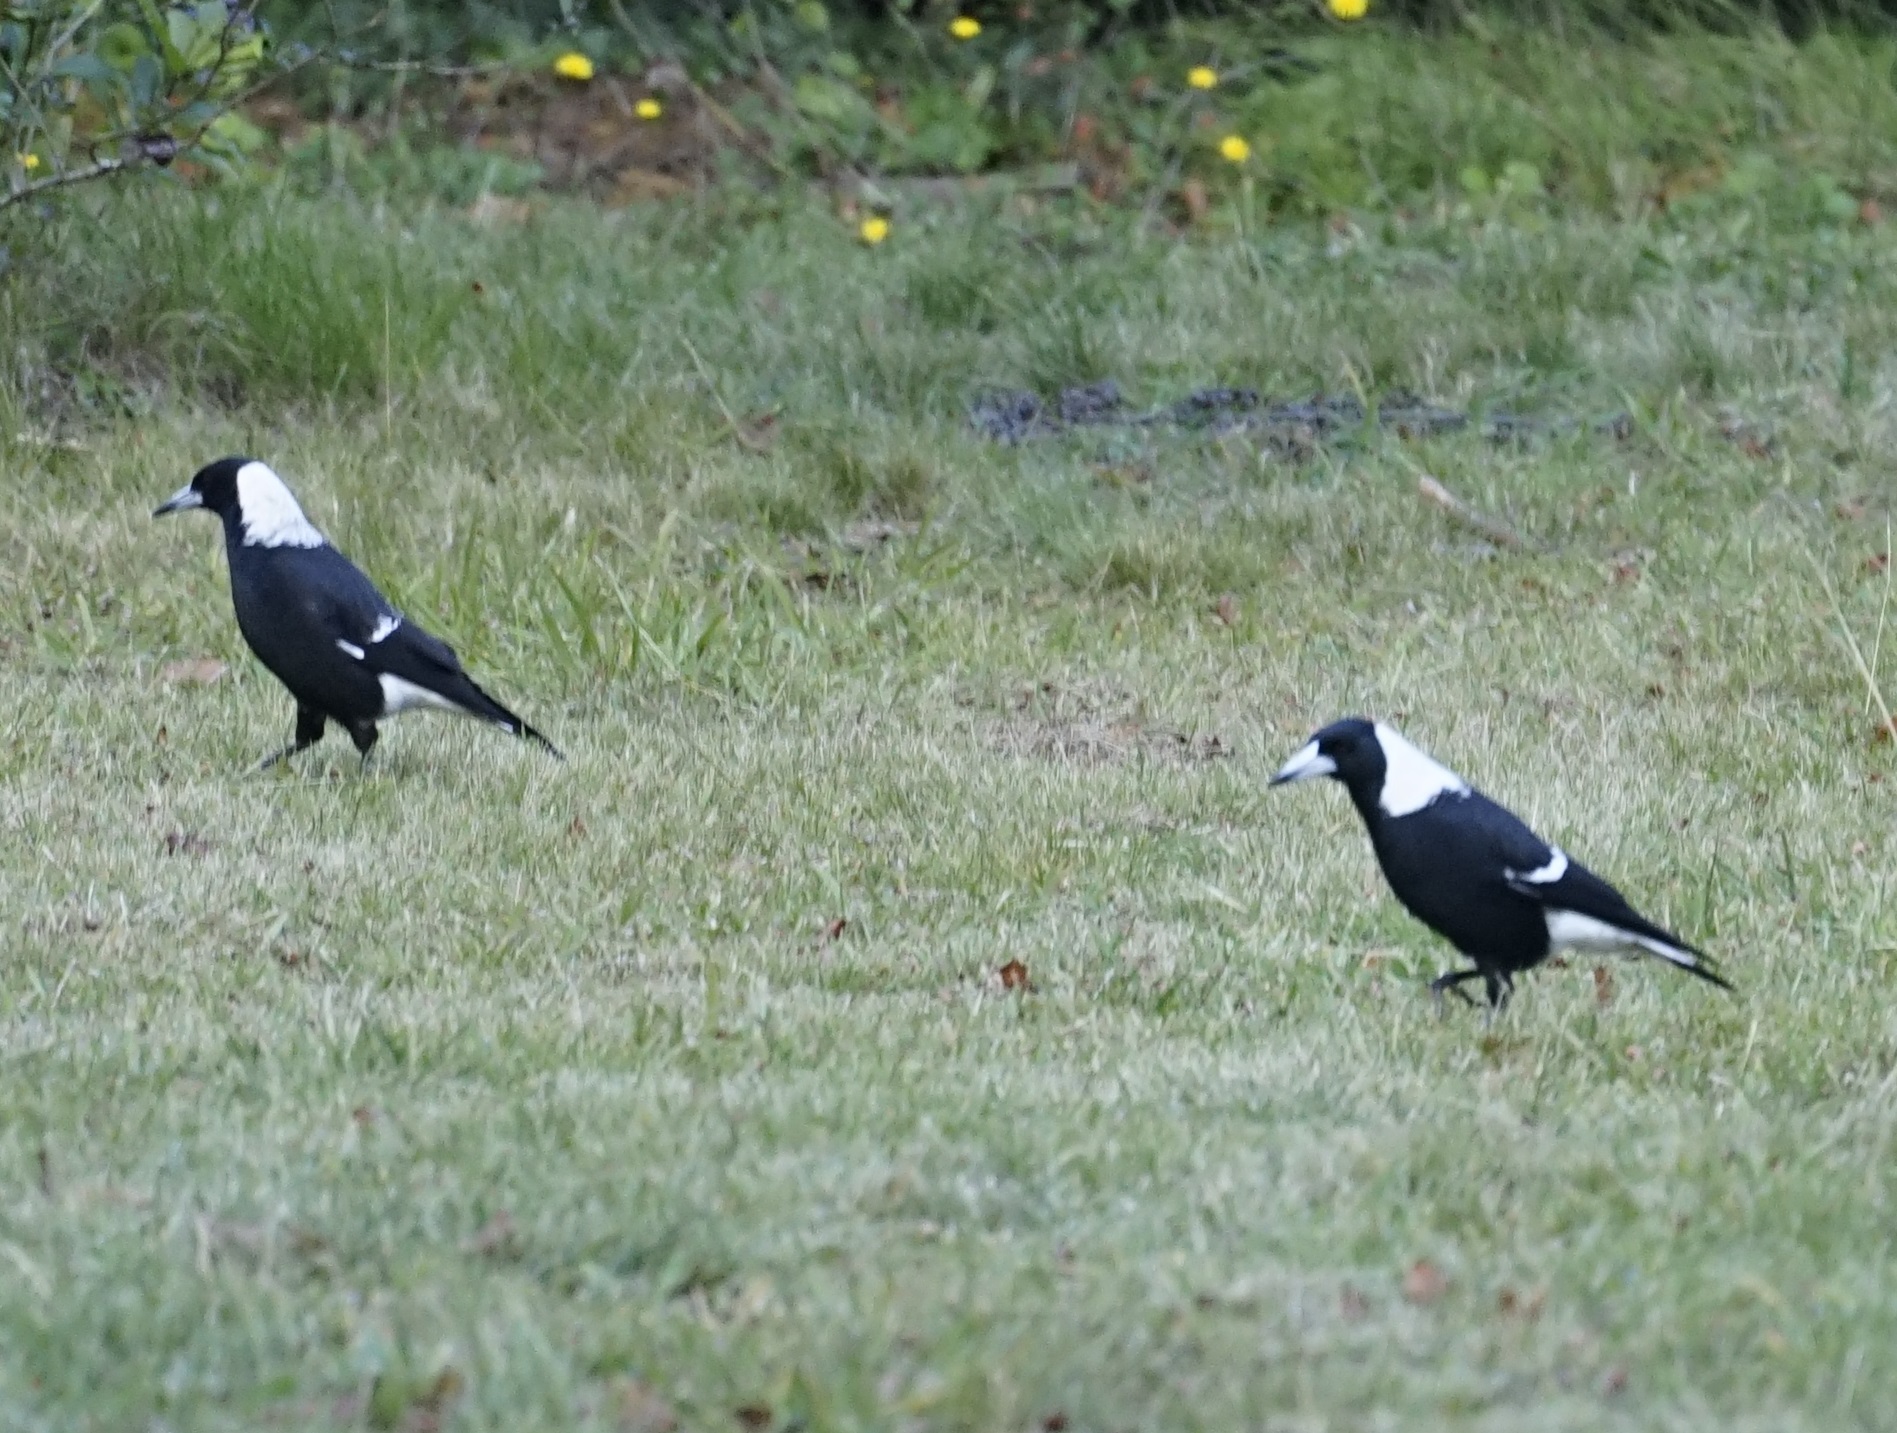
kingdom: Animalia
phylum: Chordata
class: Aves
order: Passeriformes
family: Cracticidae
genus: Gymnorhina
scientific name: Gymnorhina tibicen
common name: Australian magpie
